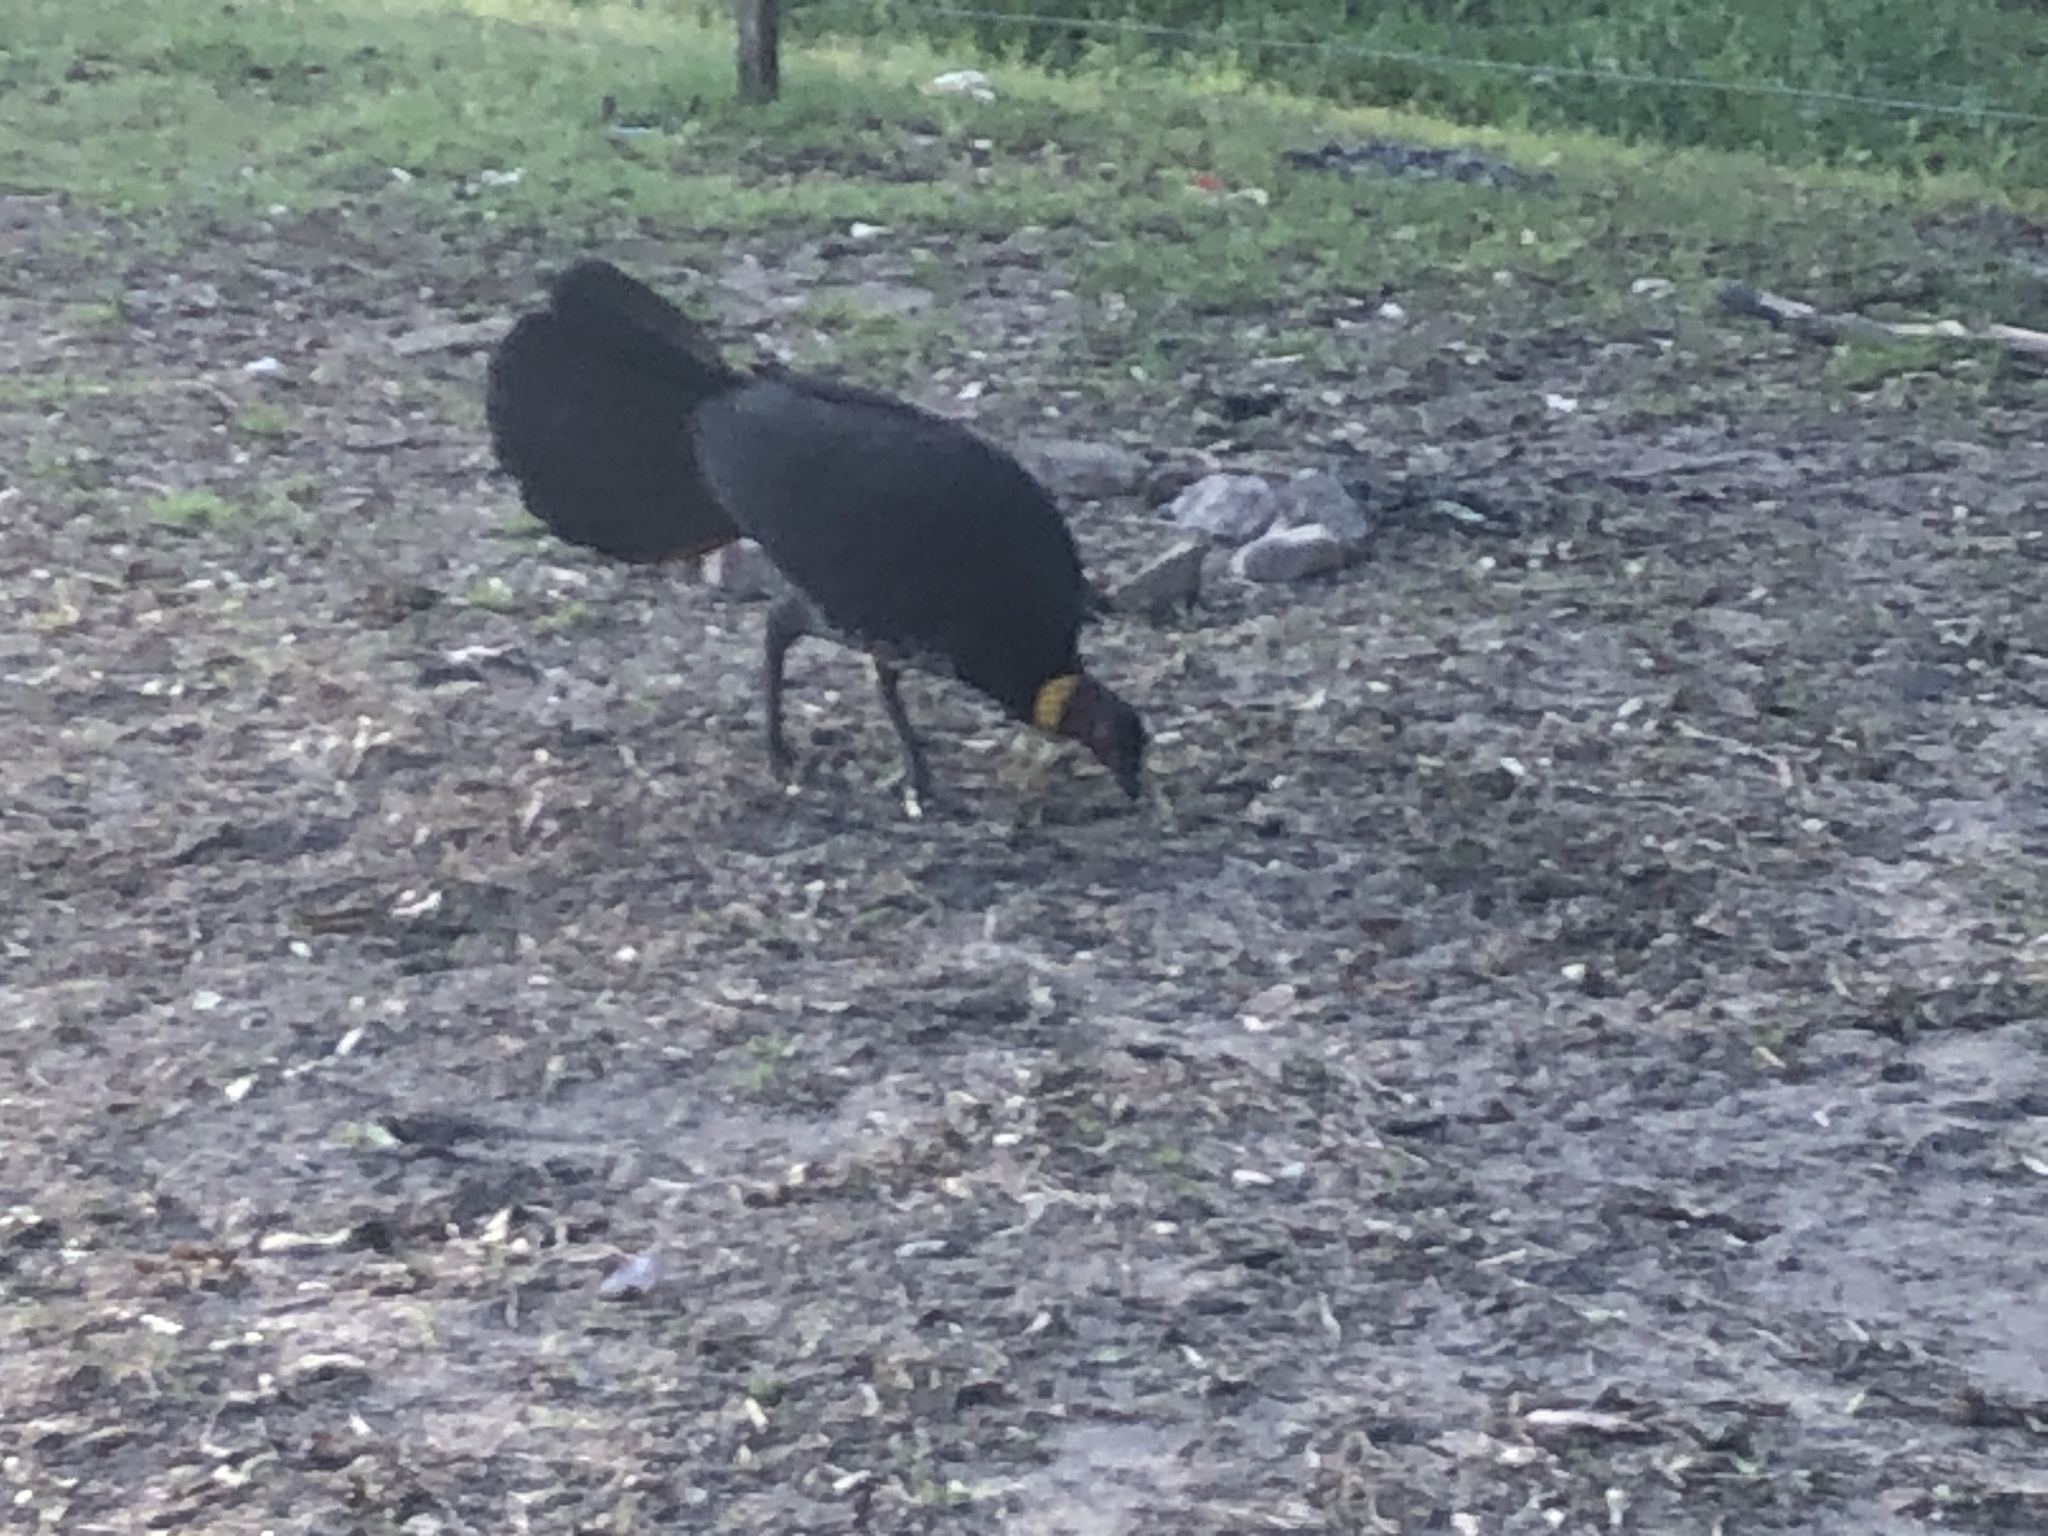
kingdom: Animalia
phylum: Chordata
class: Aves
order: Galliformes
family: Megapodiidae
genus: Alectura
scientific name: Alectura lathami
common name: Australian brushturkey
